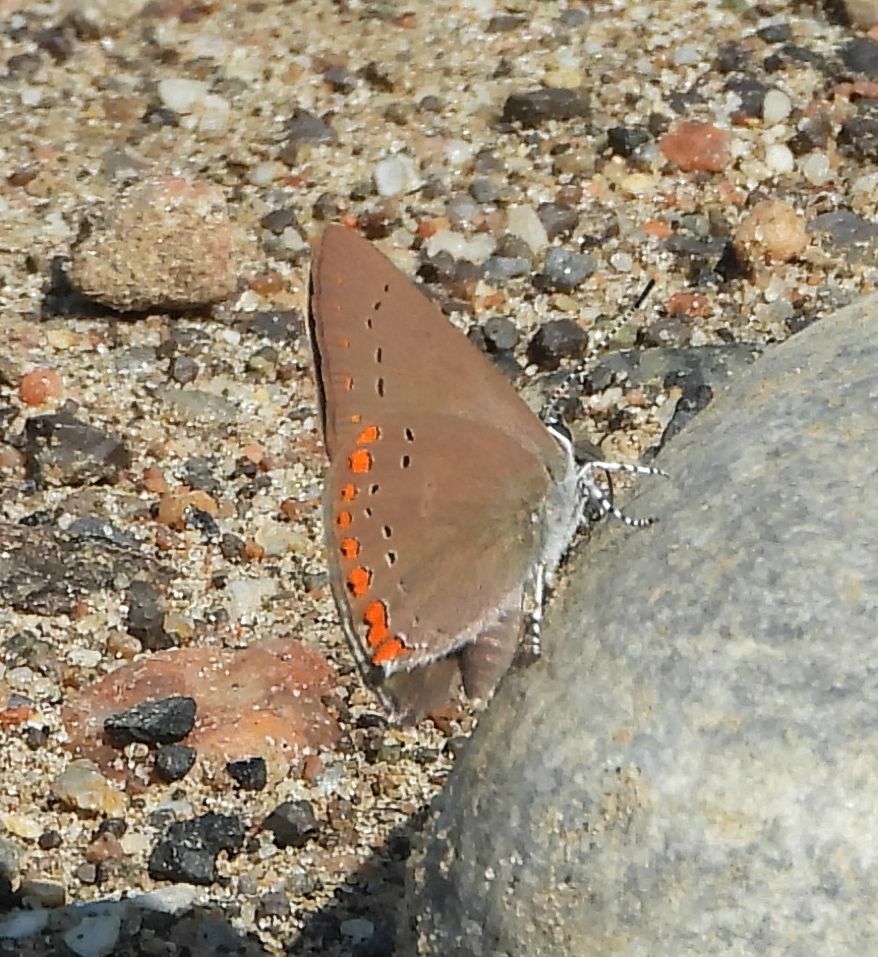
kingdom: Animalia
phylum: Arthropoda
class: Insecta
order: Lepidoptera
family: Lycaenidae
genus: Harkenclenus
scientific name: Harkenclenus titus
